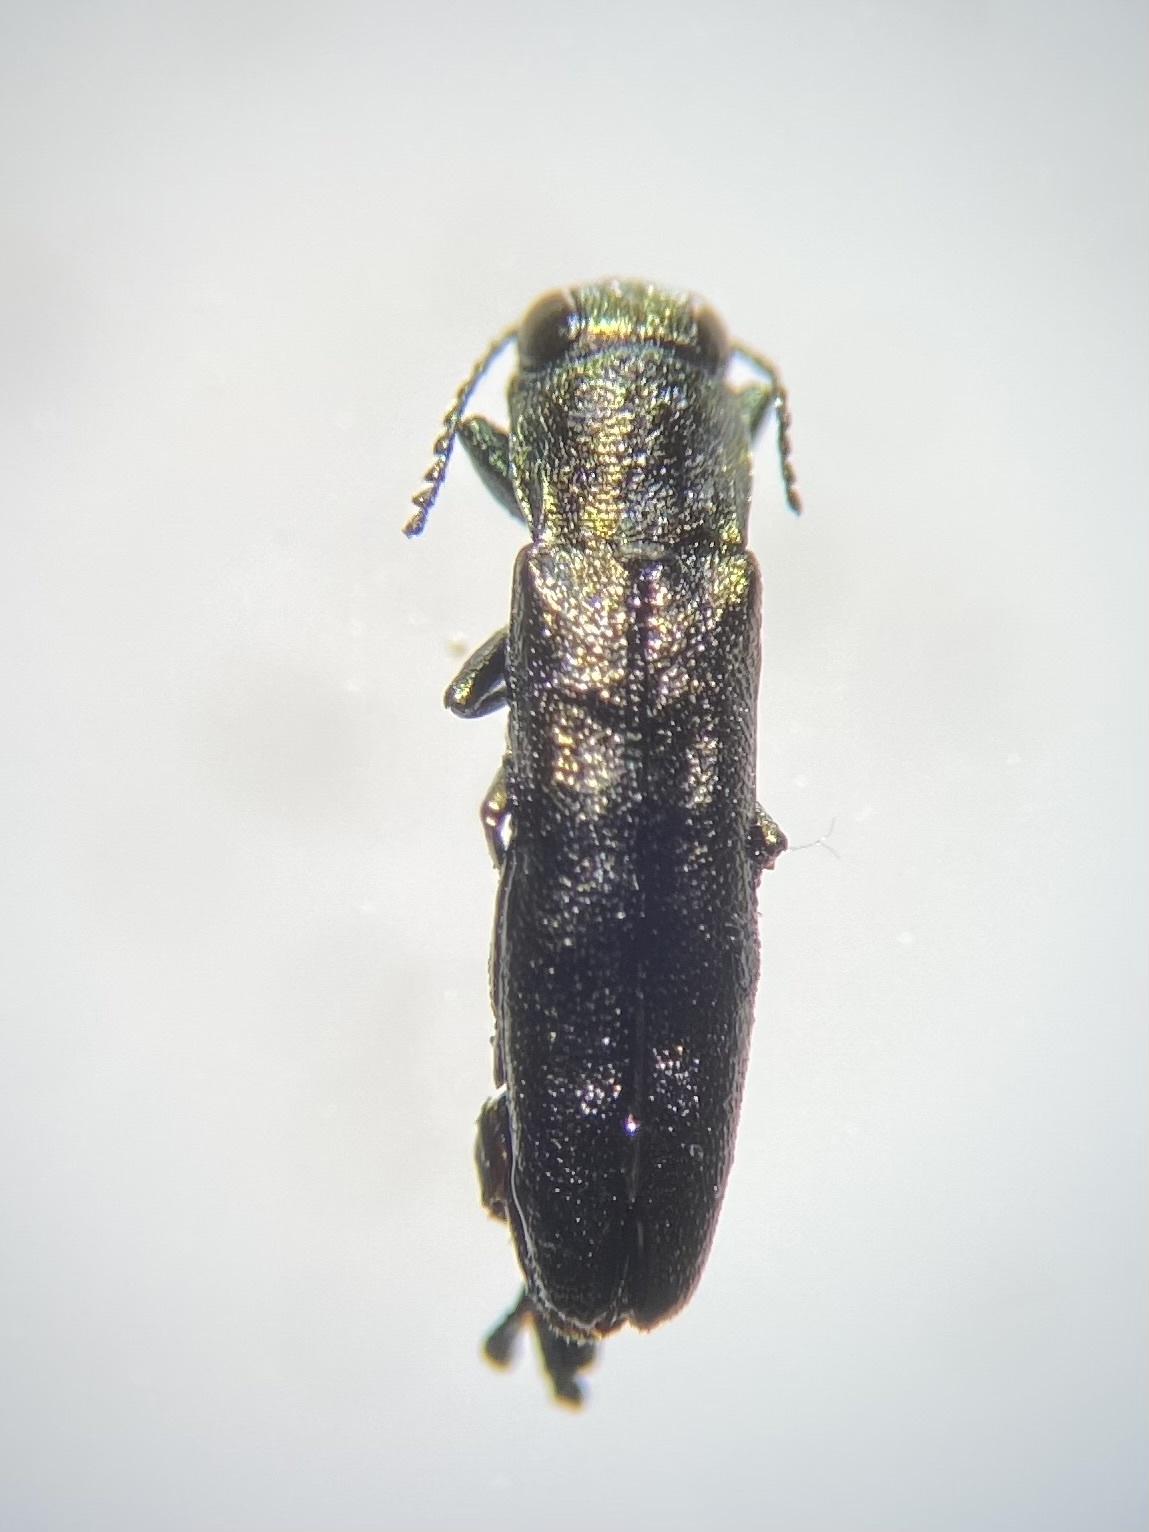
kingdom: Animalia
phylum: Arthropoda
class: Insecta
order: Coleoptera
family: Buprestidae
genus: Agrilus
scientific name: Agrilus egeniformis
